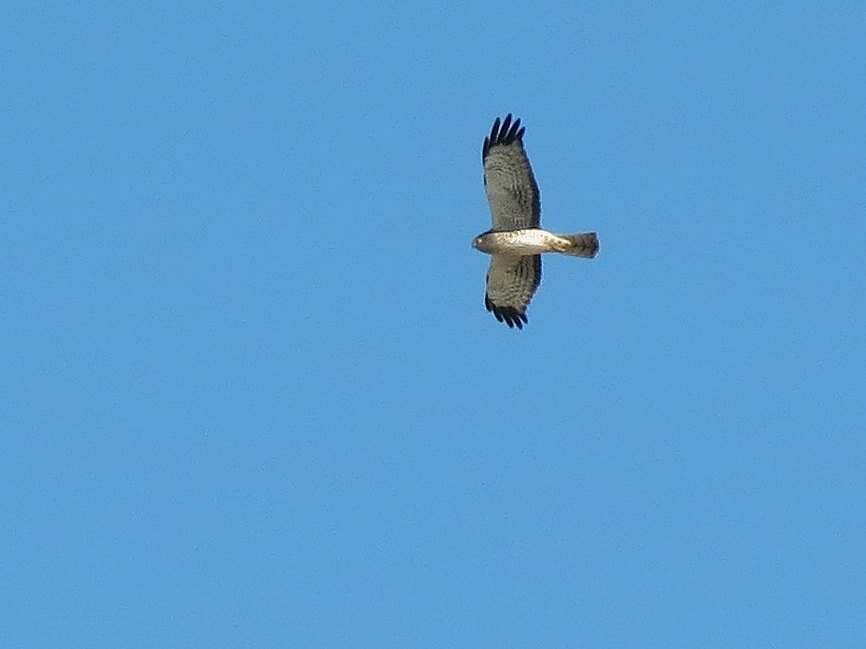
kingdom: Animalia
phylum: Chordata
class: Aves
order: Accipitriformes
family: Accipitridae
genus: Circus
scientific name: Circus cyaneus
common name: Hen harrier
